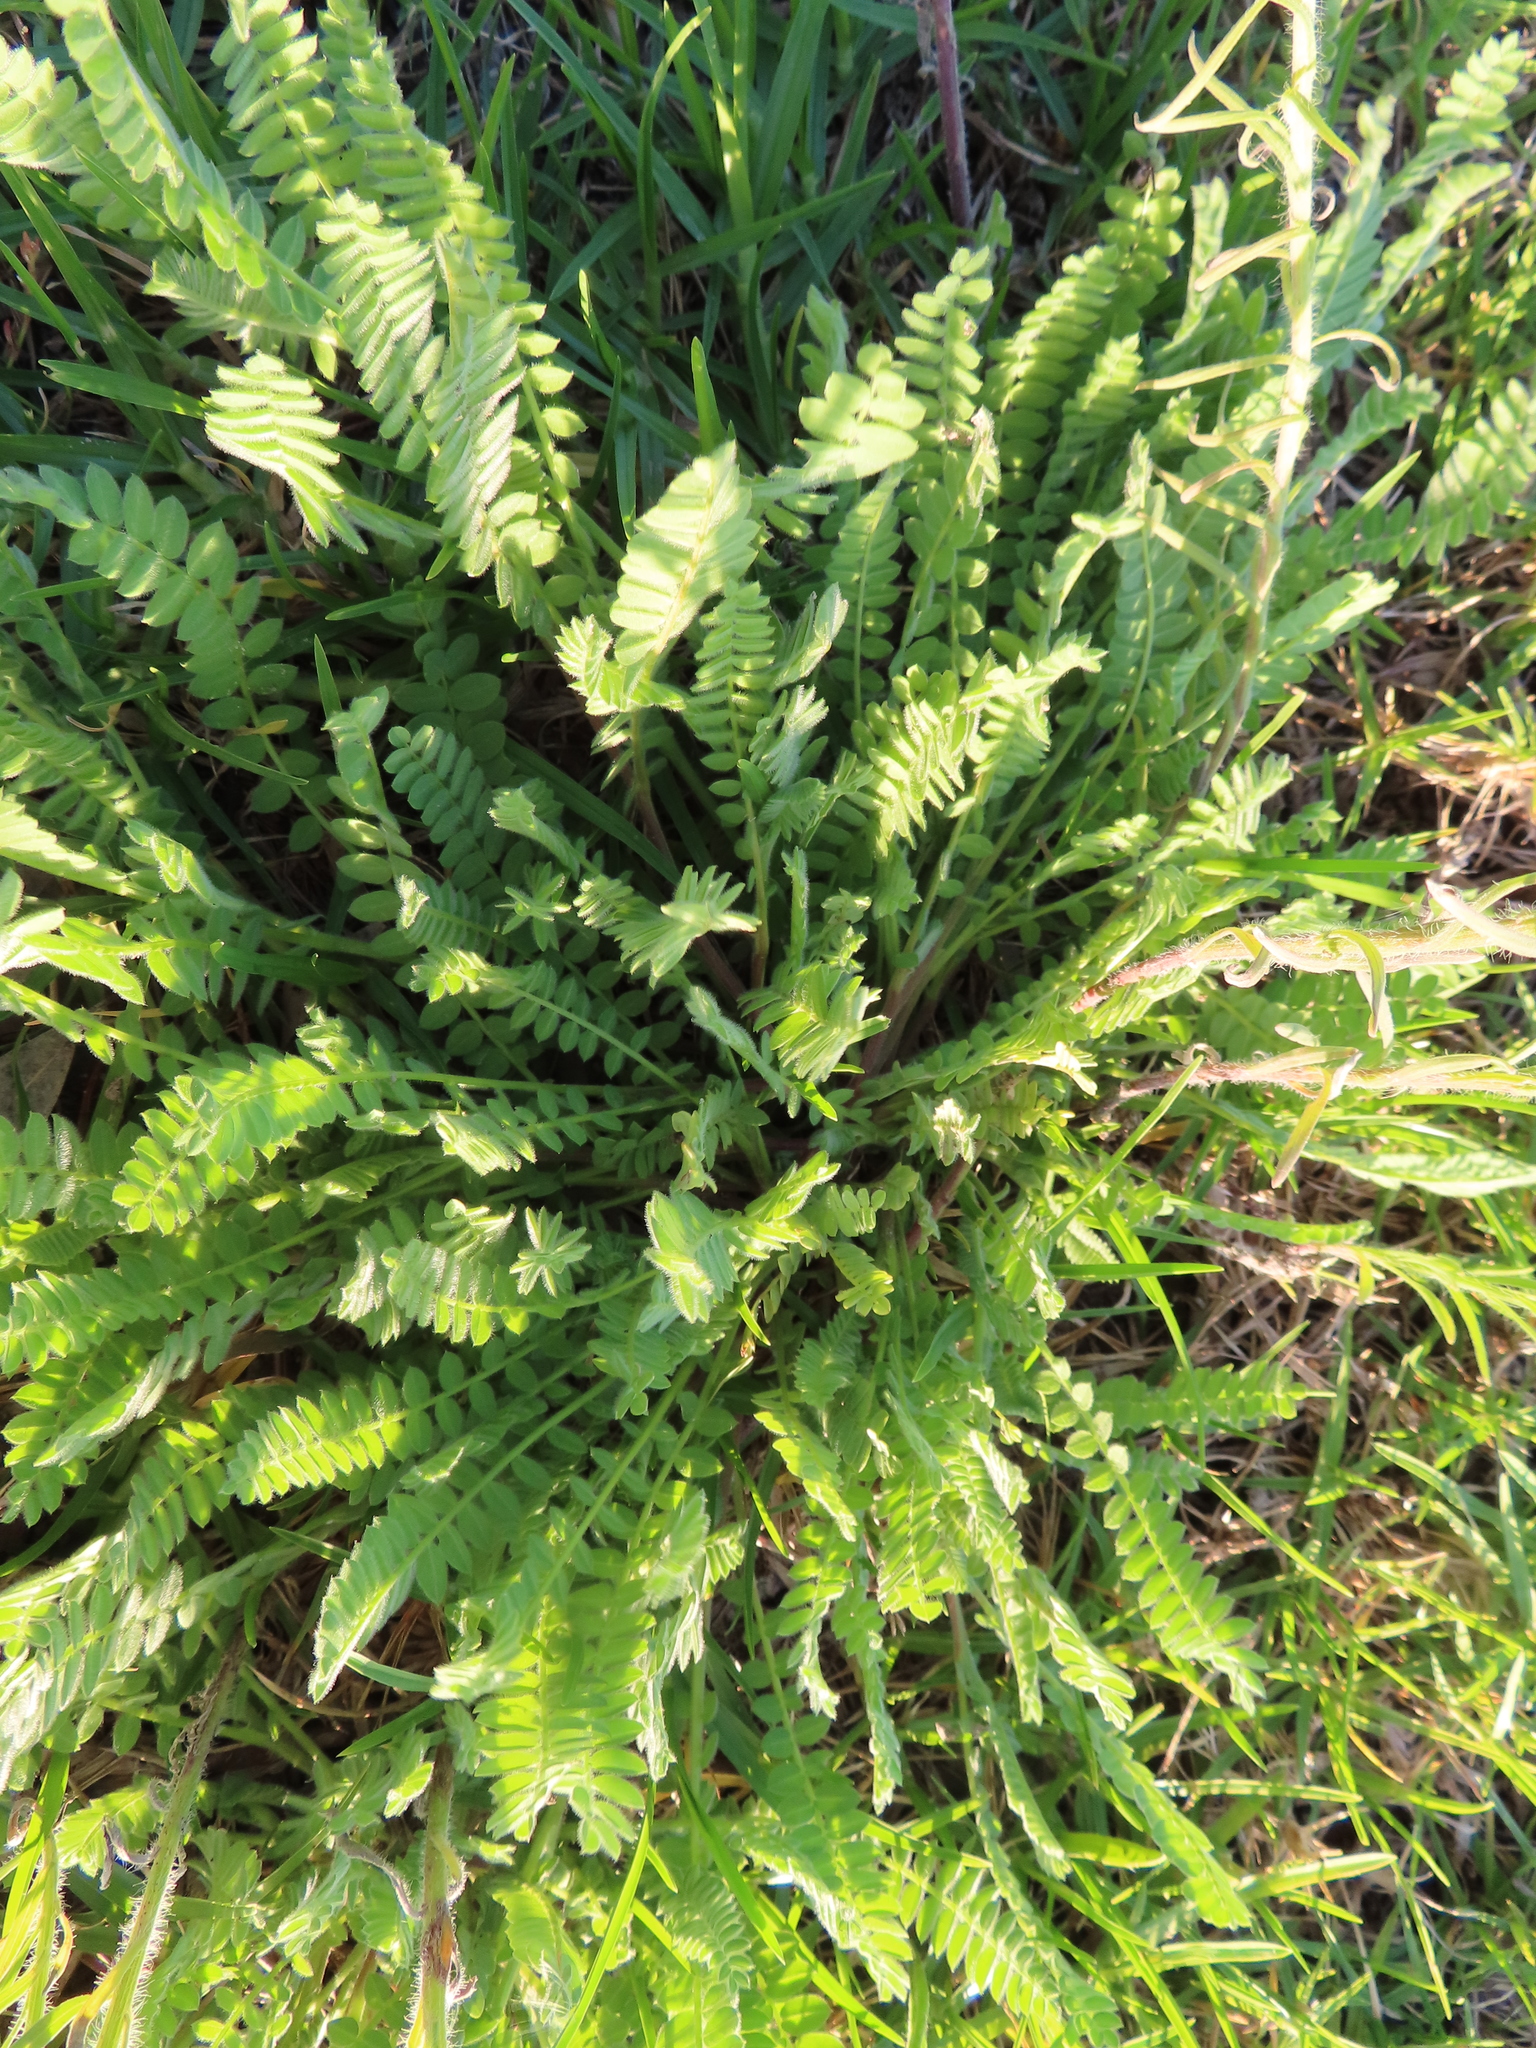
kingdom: Plantae
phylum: Tracheophyta
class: Magnoliopsida
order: Fabales
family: Fabaceae
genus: Ornithopus
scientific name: Ornithopus sativus
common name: Serradella
